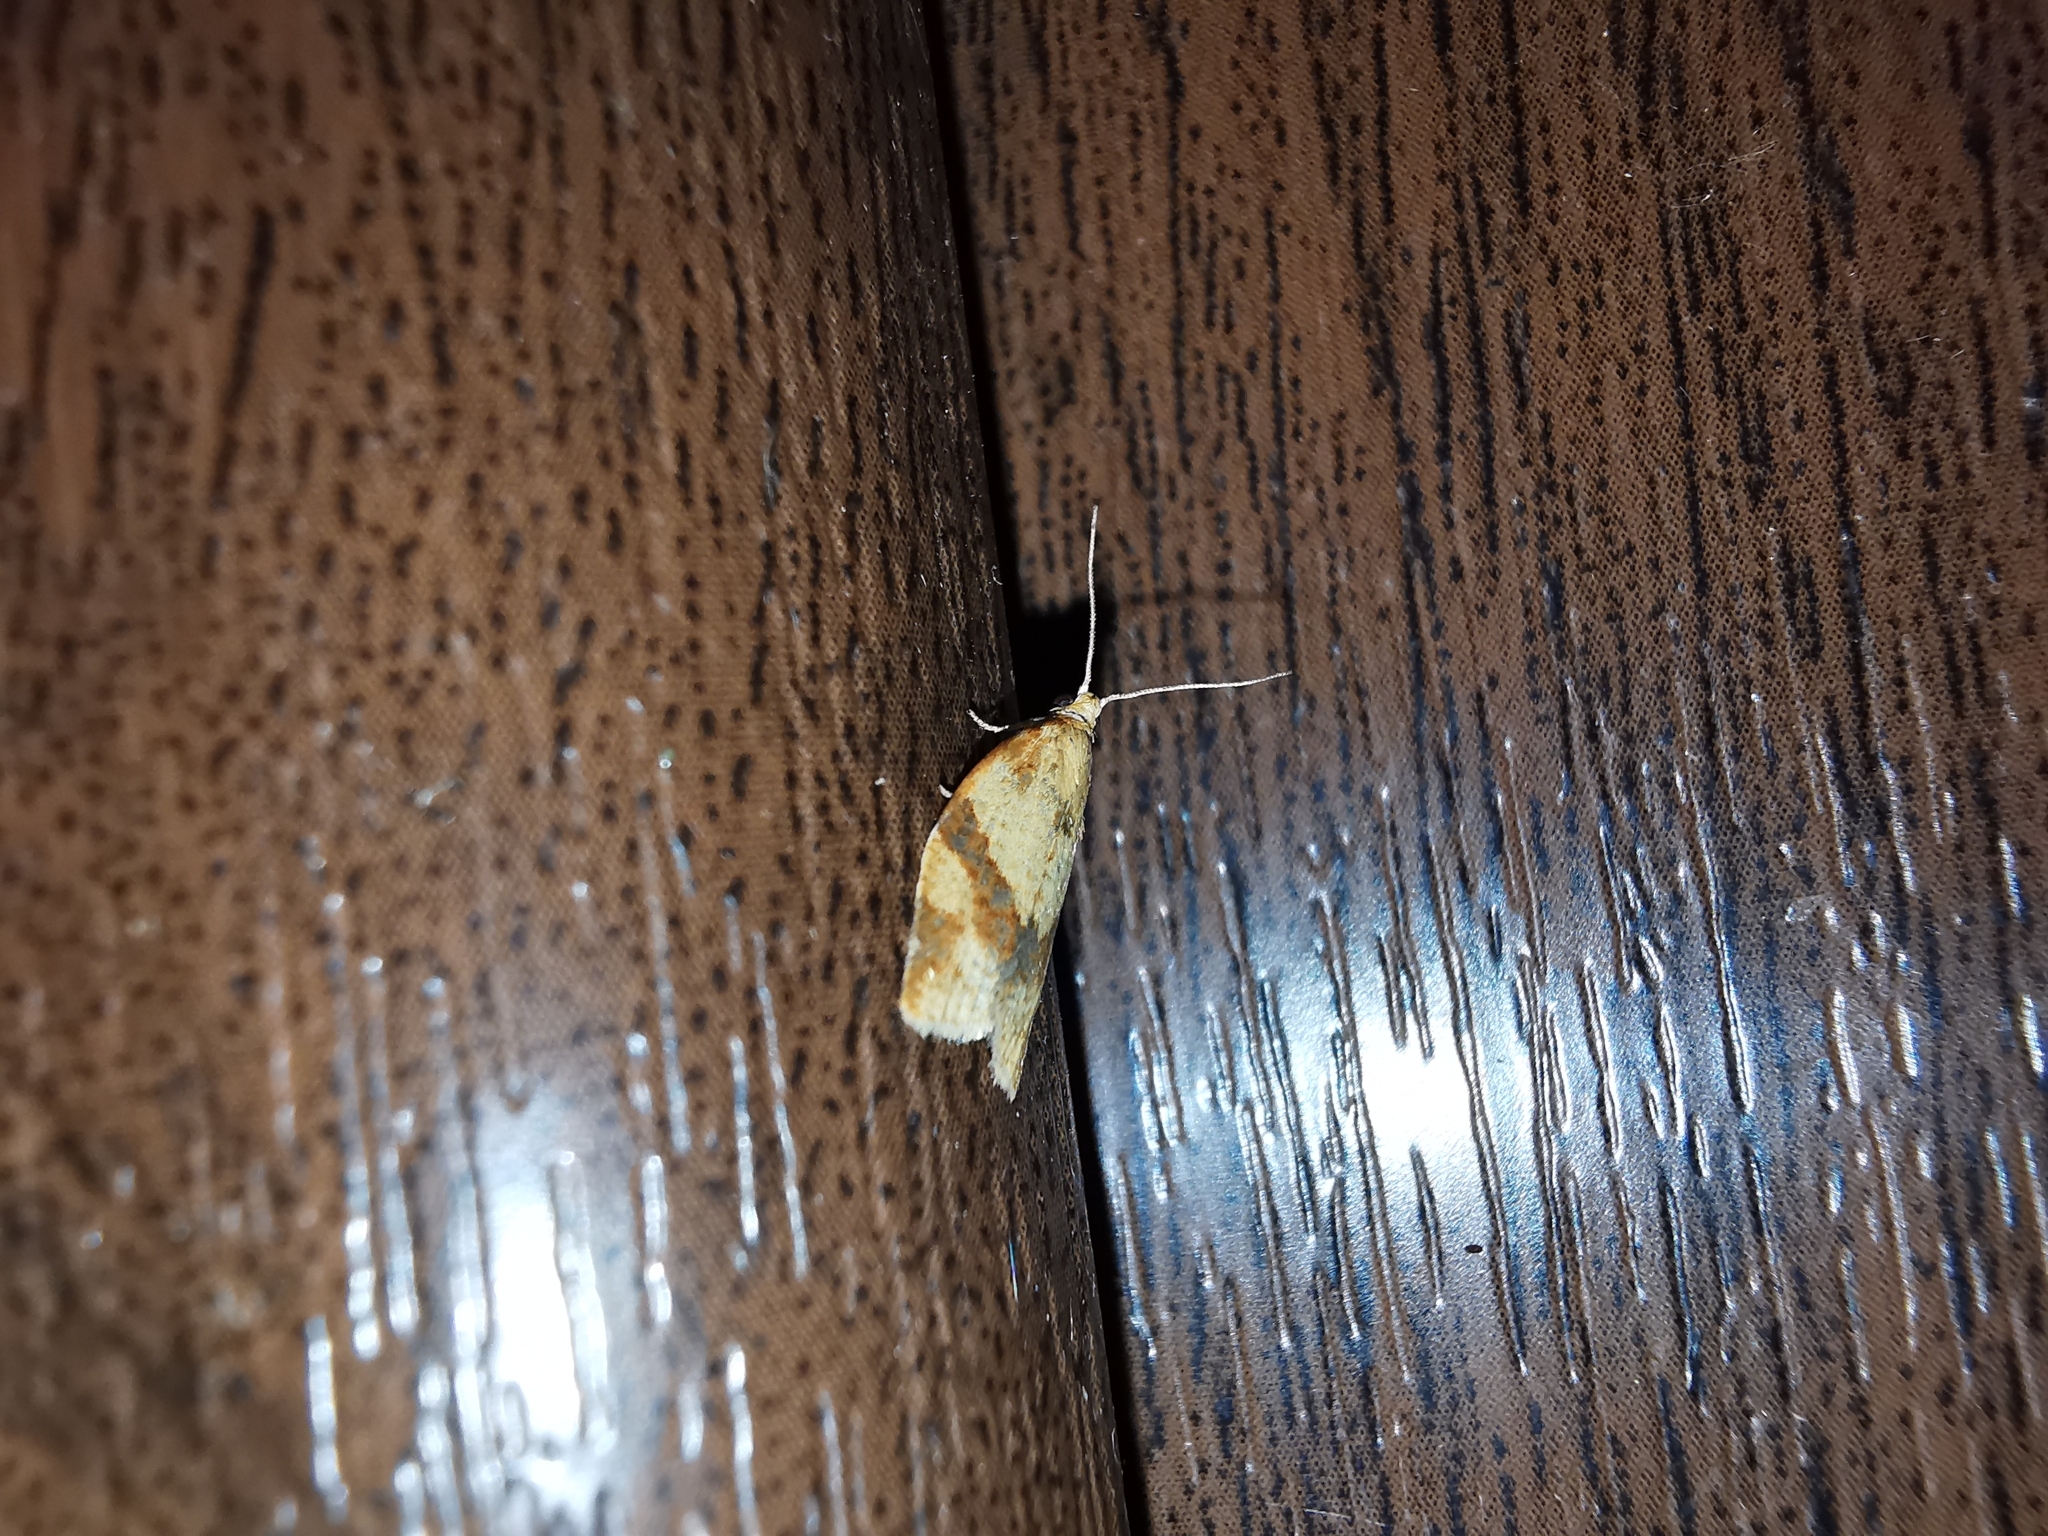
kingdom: Animalia
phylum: Arthropoda
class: Insecta
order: Lepidoptera
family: Tortricidae
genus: Clepsis
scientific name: Clepsis consimilana
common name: Privet tortrix
